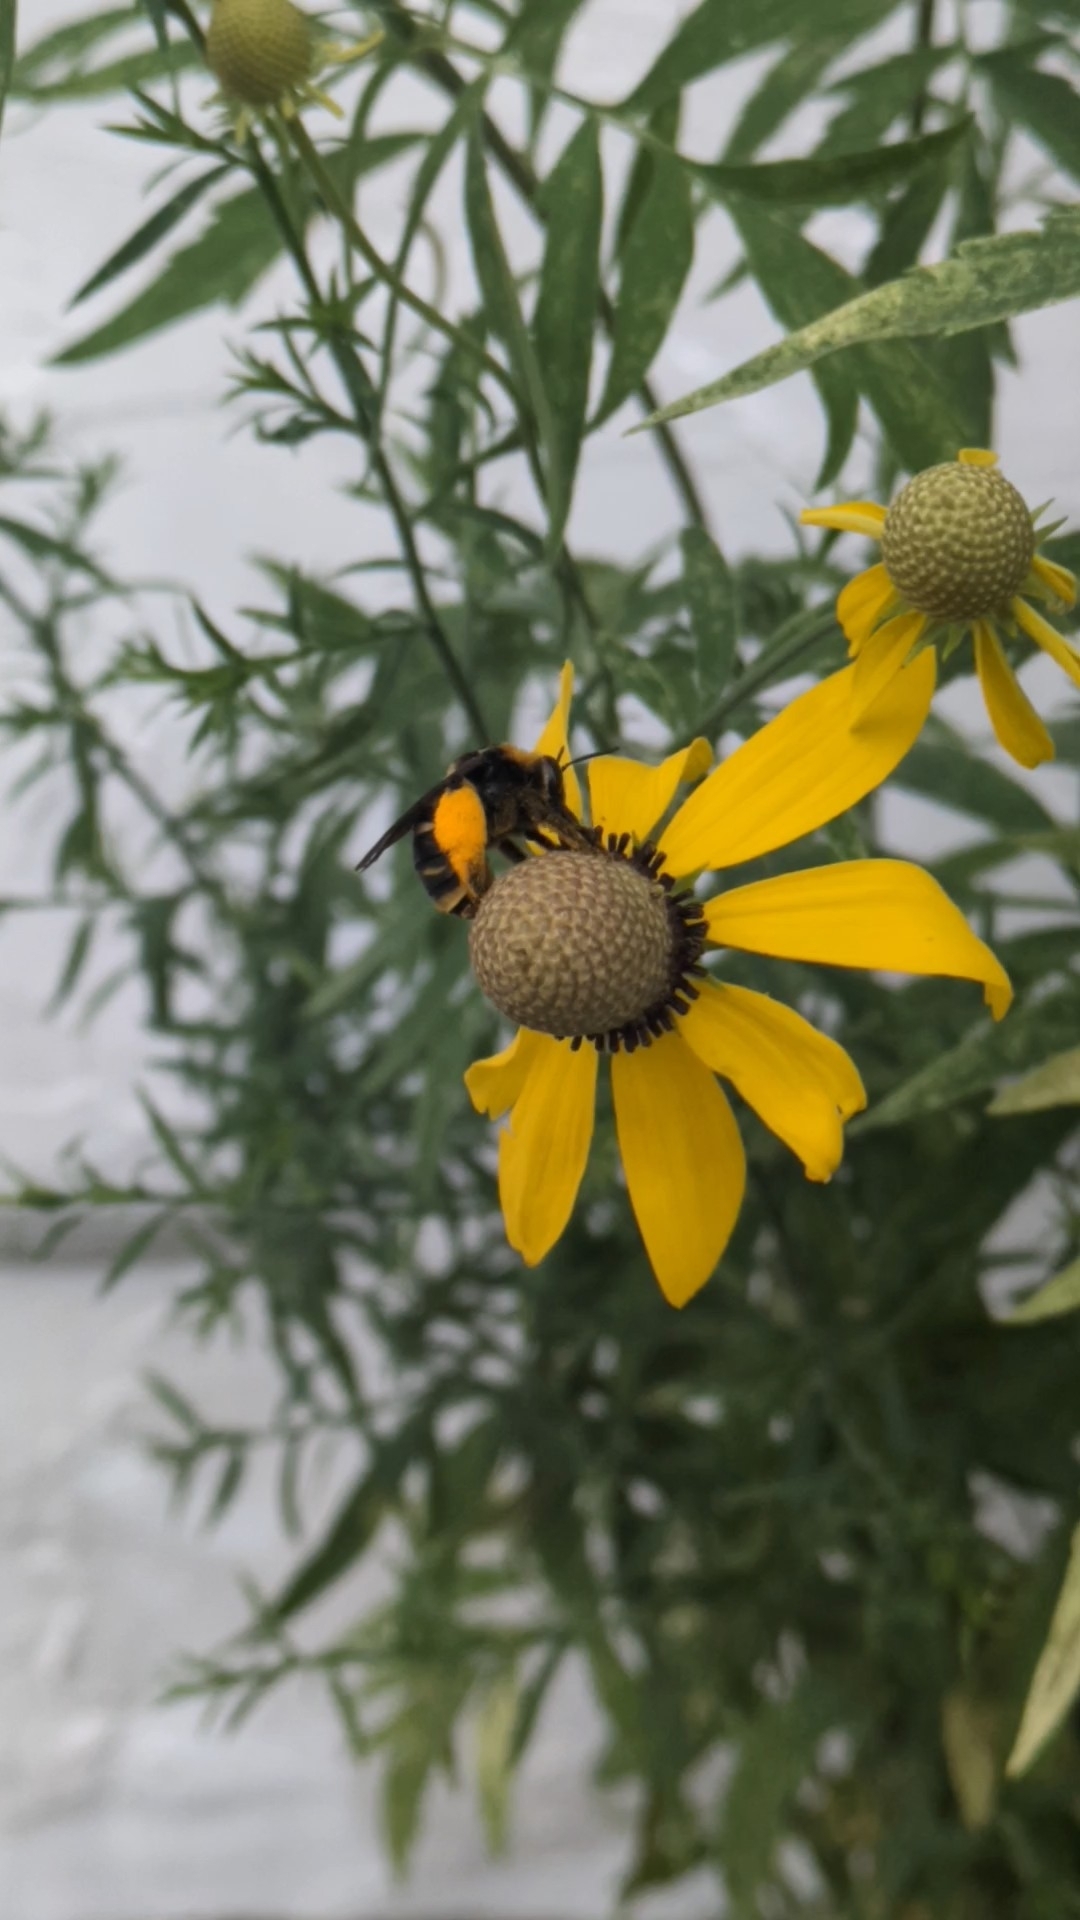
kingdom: Animalia
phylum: Arthropoda
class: Insecta
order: Hymenoptera
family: Apidae
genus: Svastra
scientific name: Svastra obliqua
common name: Oblique longhorn
